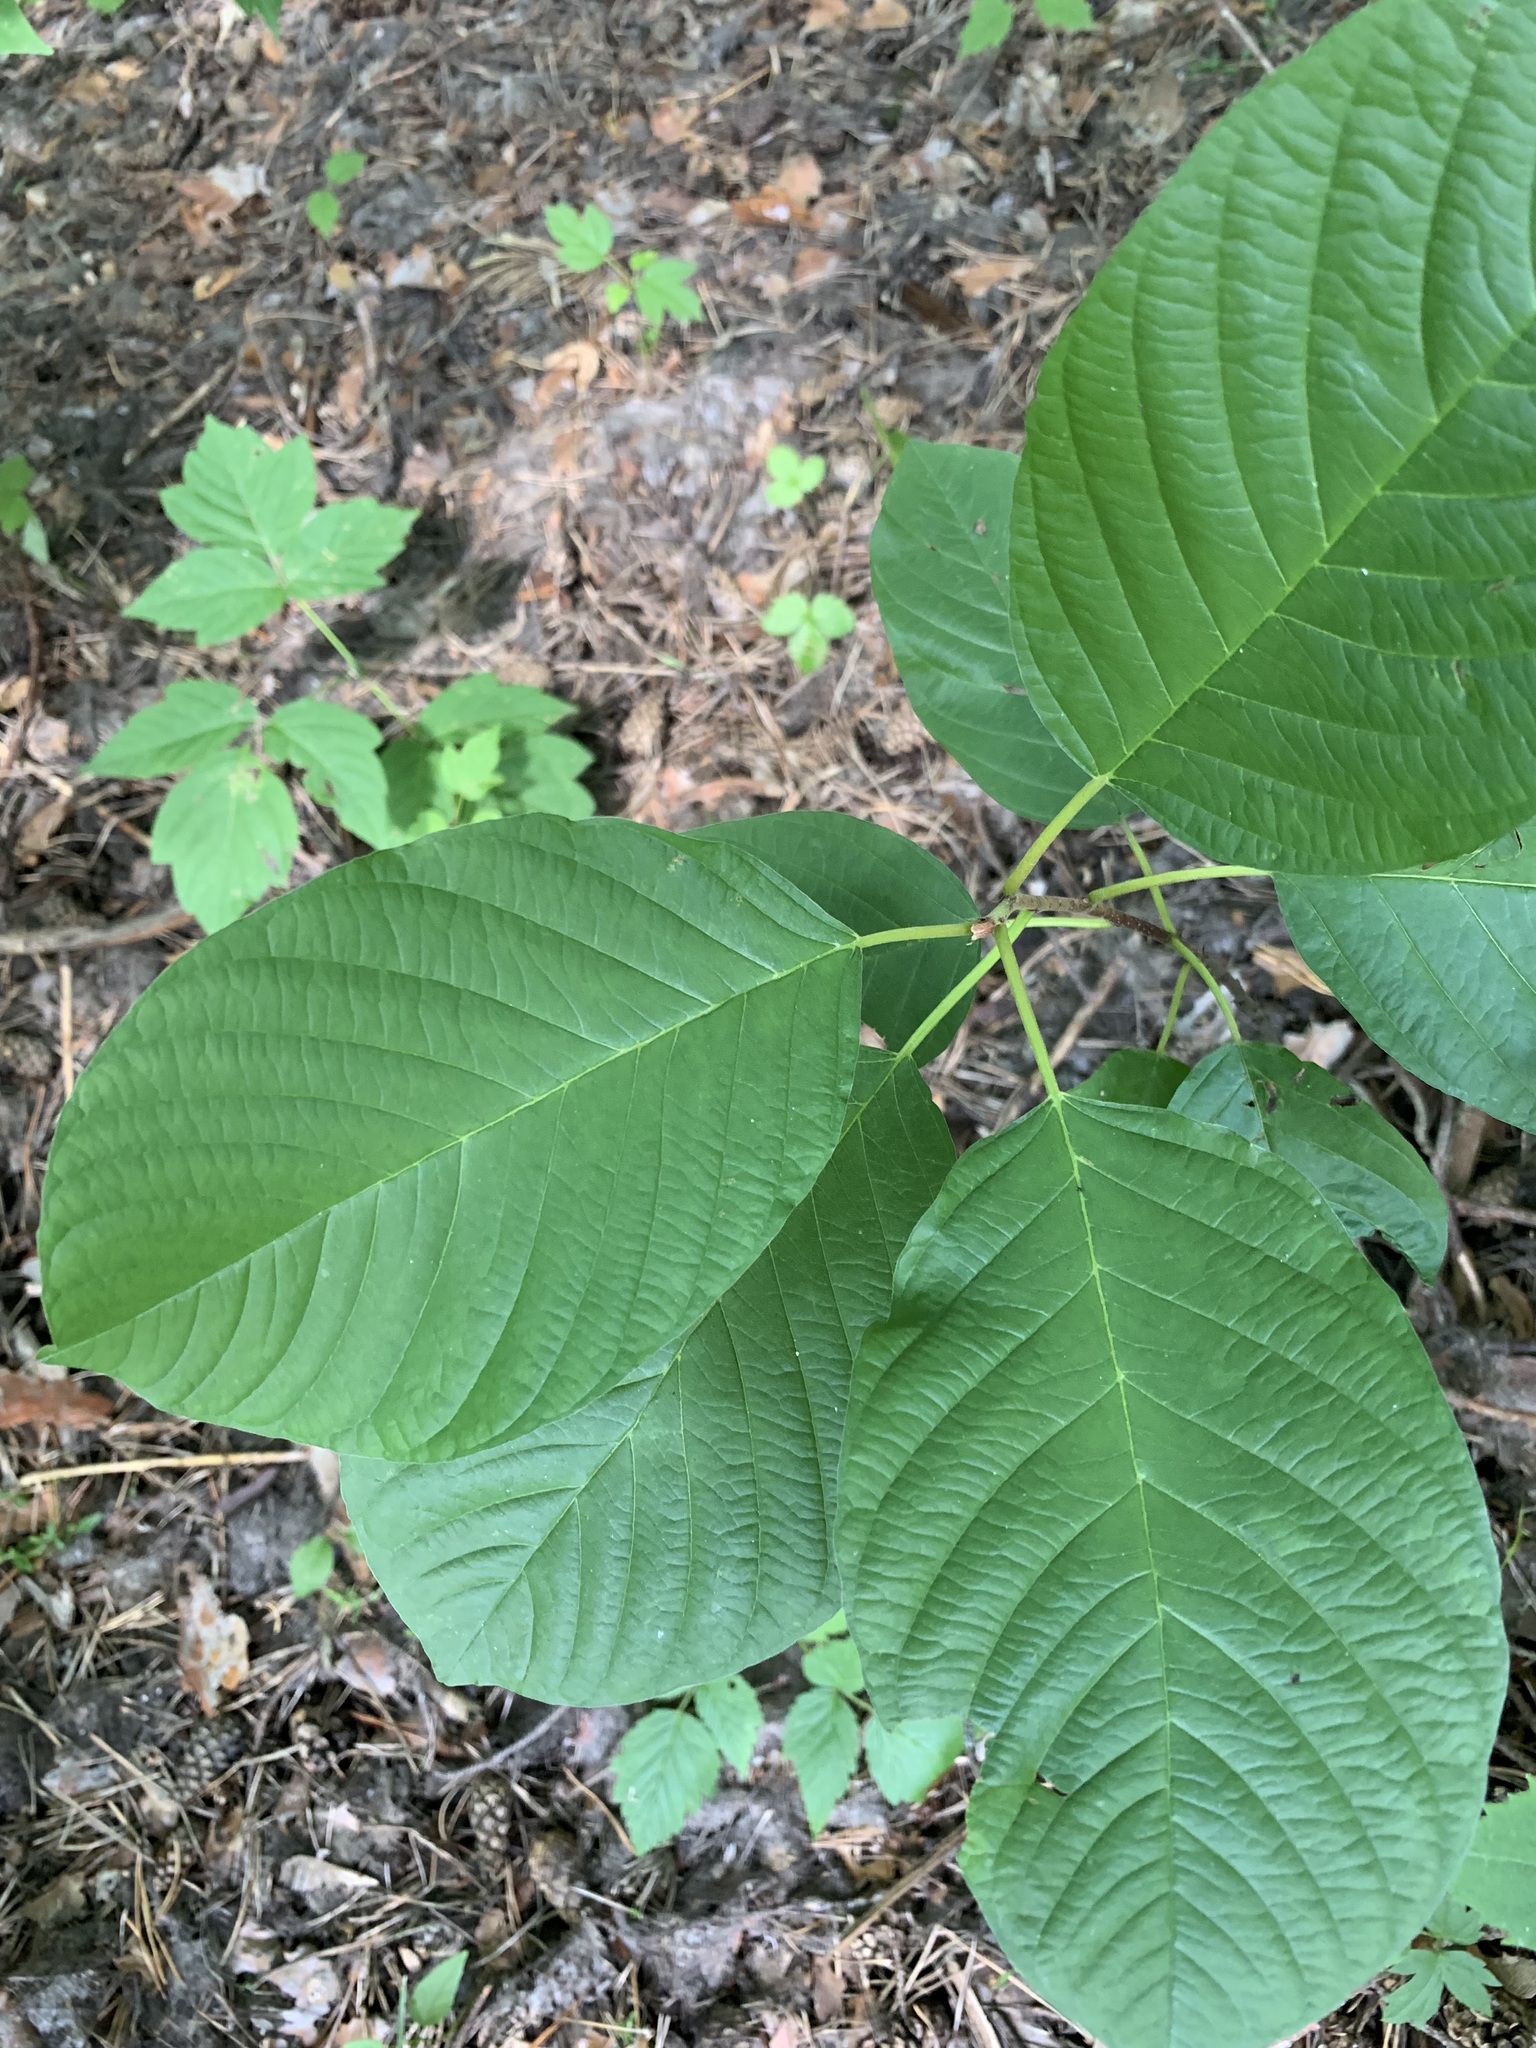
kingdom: Plantae
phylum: Tracheophyta
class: Magnoliopsida
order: Rosales
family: Rhamnaceae
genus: Frangula
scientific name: Frangula alnus
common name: Alder buckthorn
